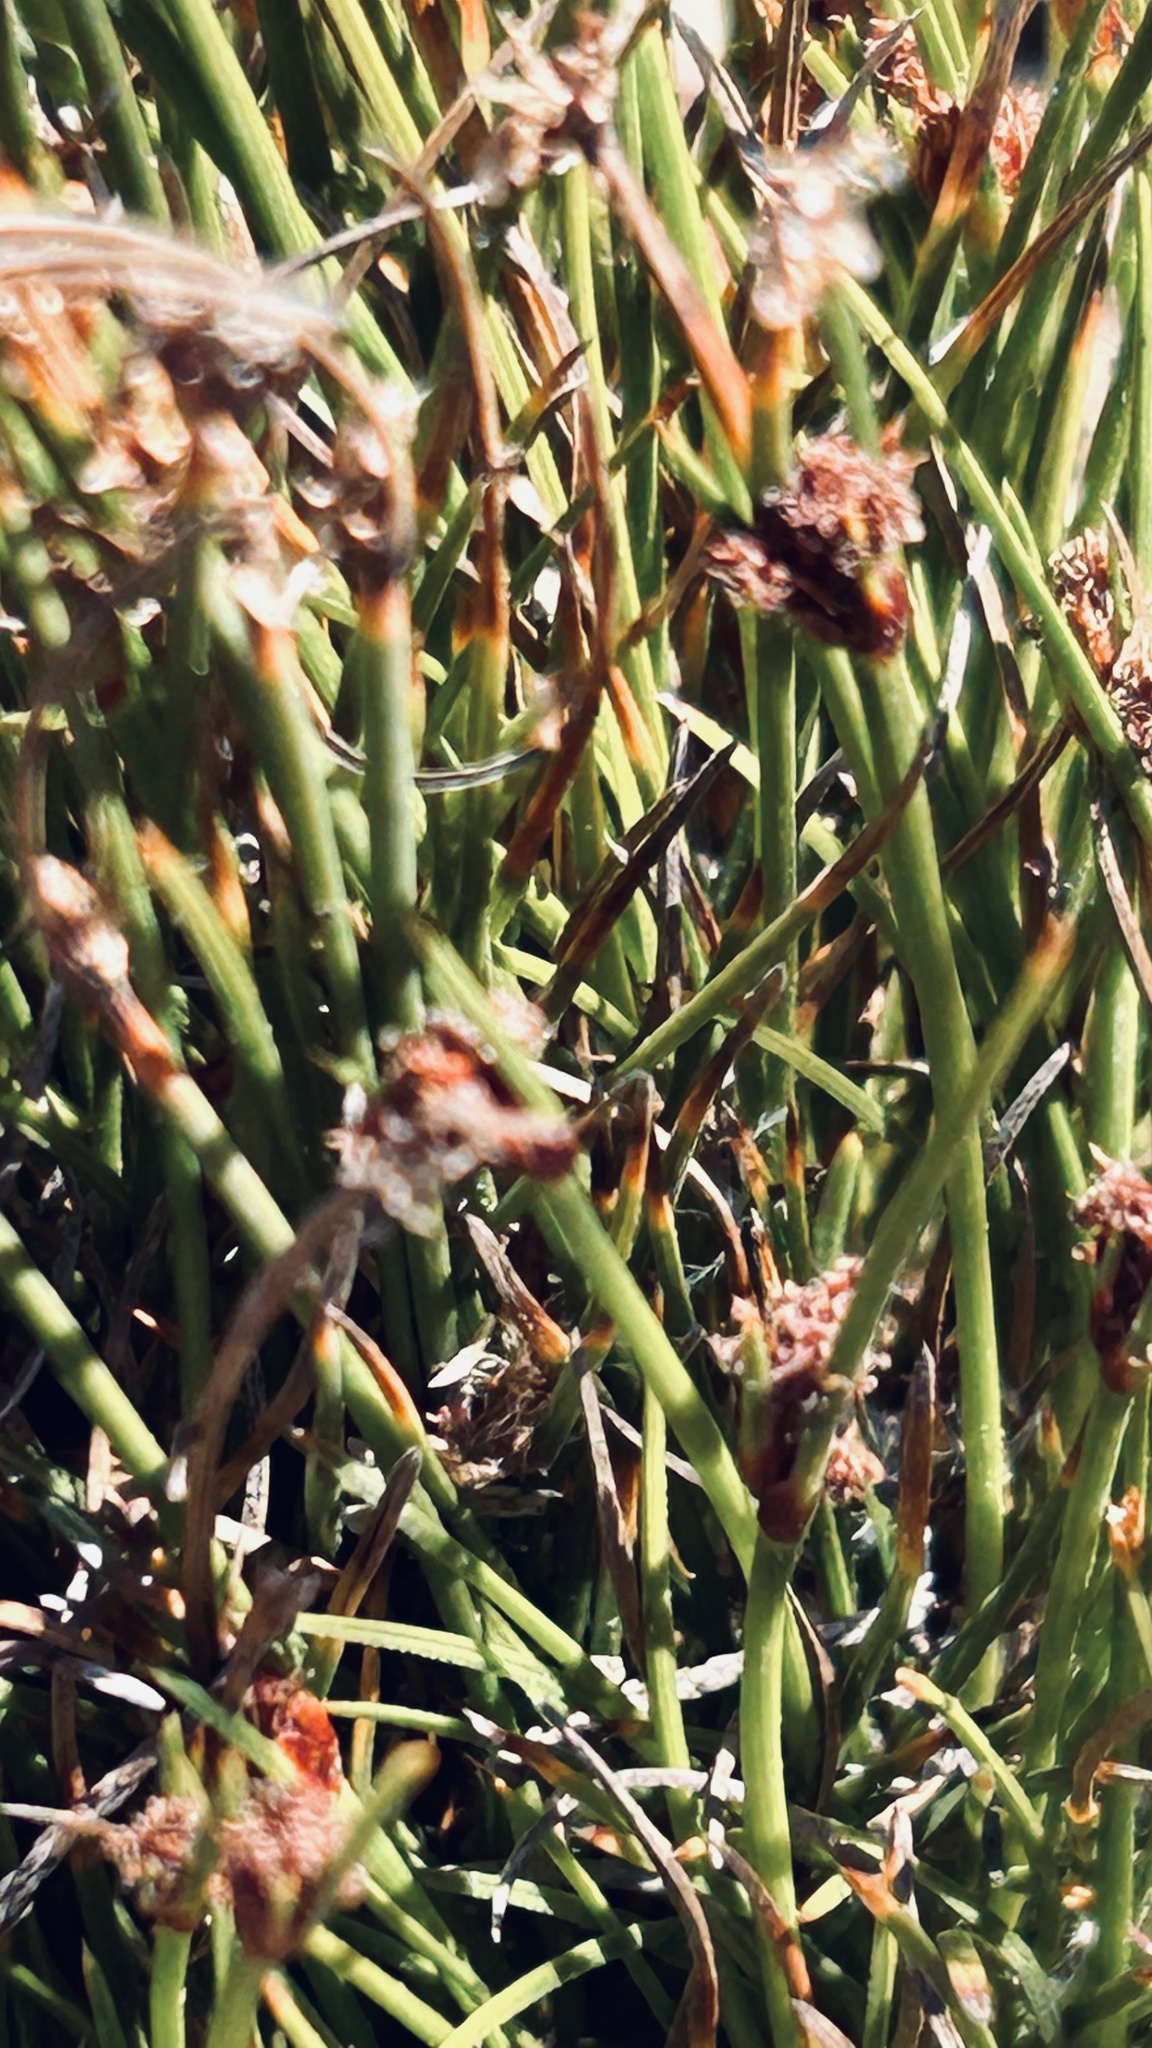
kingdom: Plantae
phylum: Tracheophyta
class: Liliopsida
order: Poales
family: Cyperaceae
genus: Ficinia
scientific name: Ficinia overbergensis
